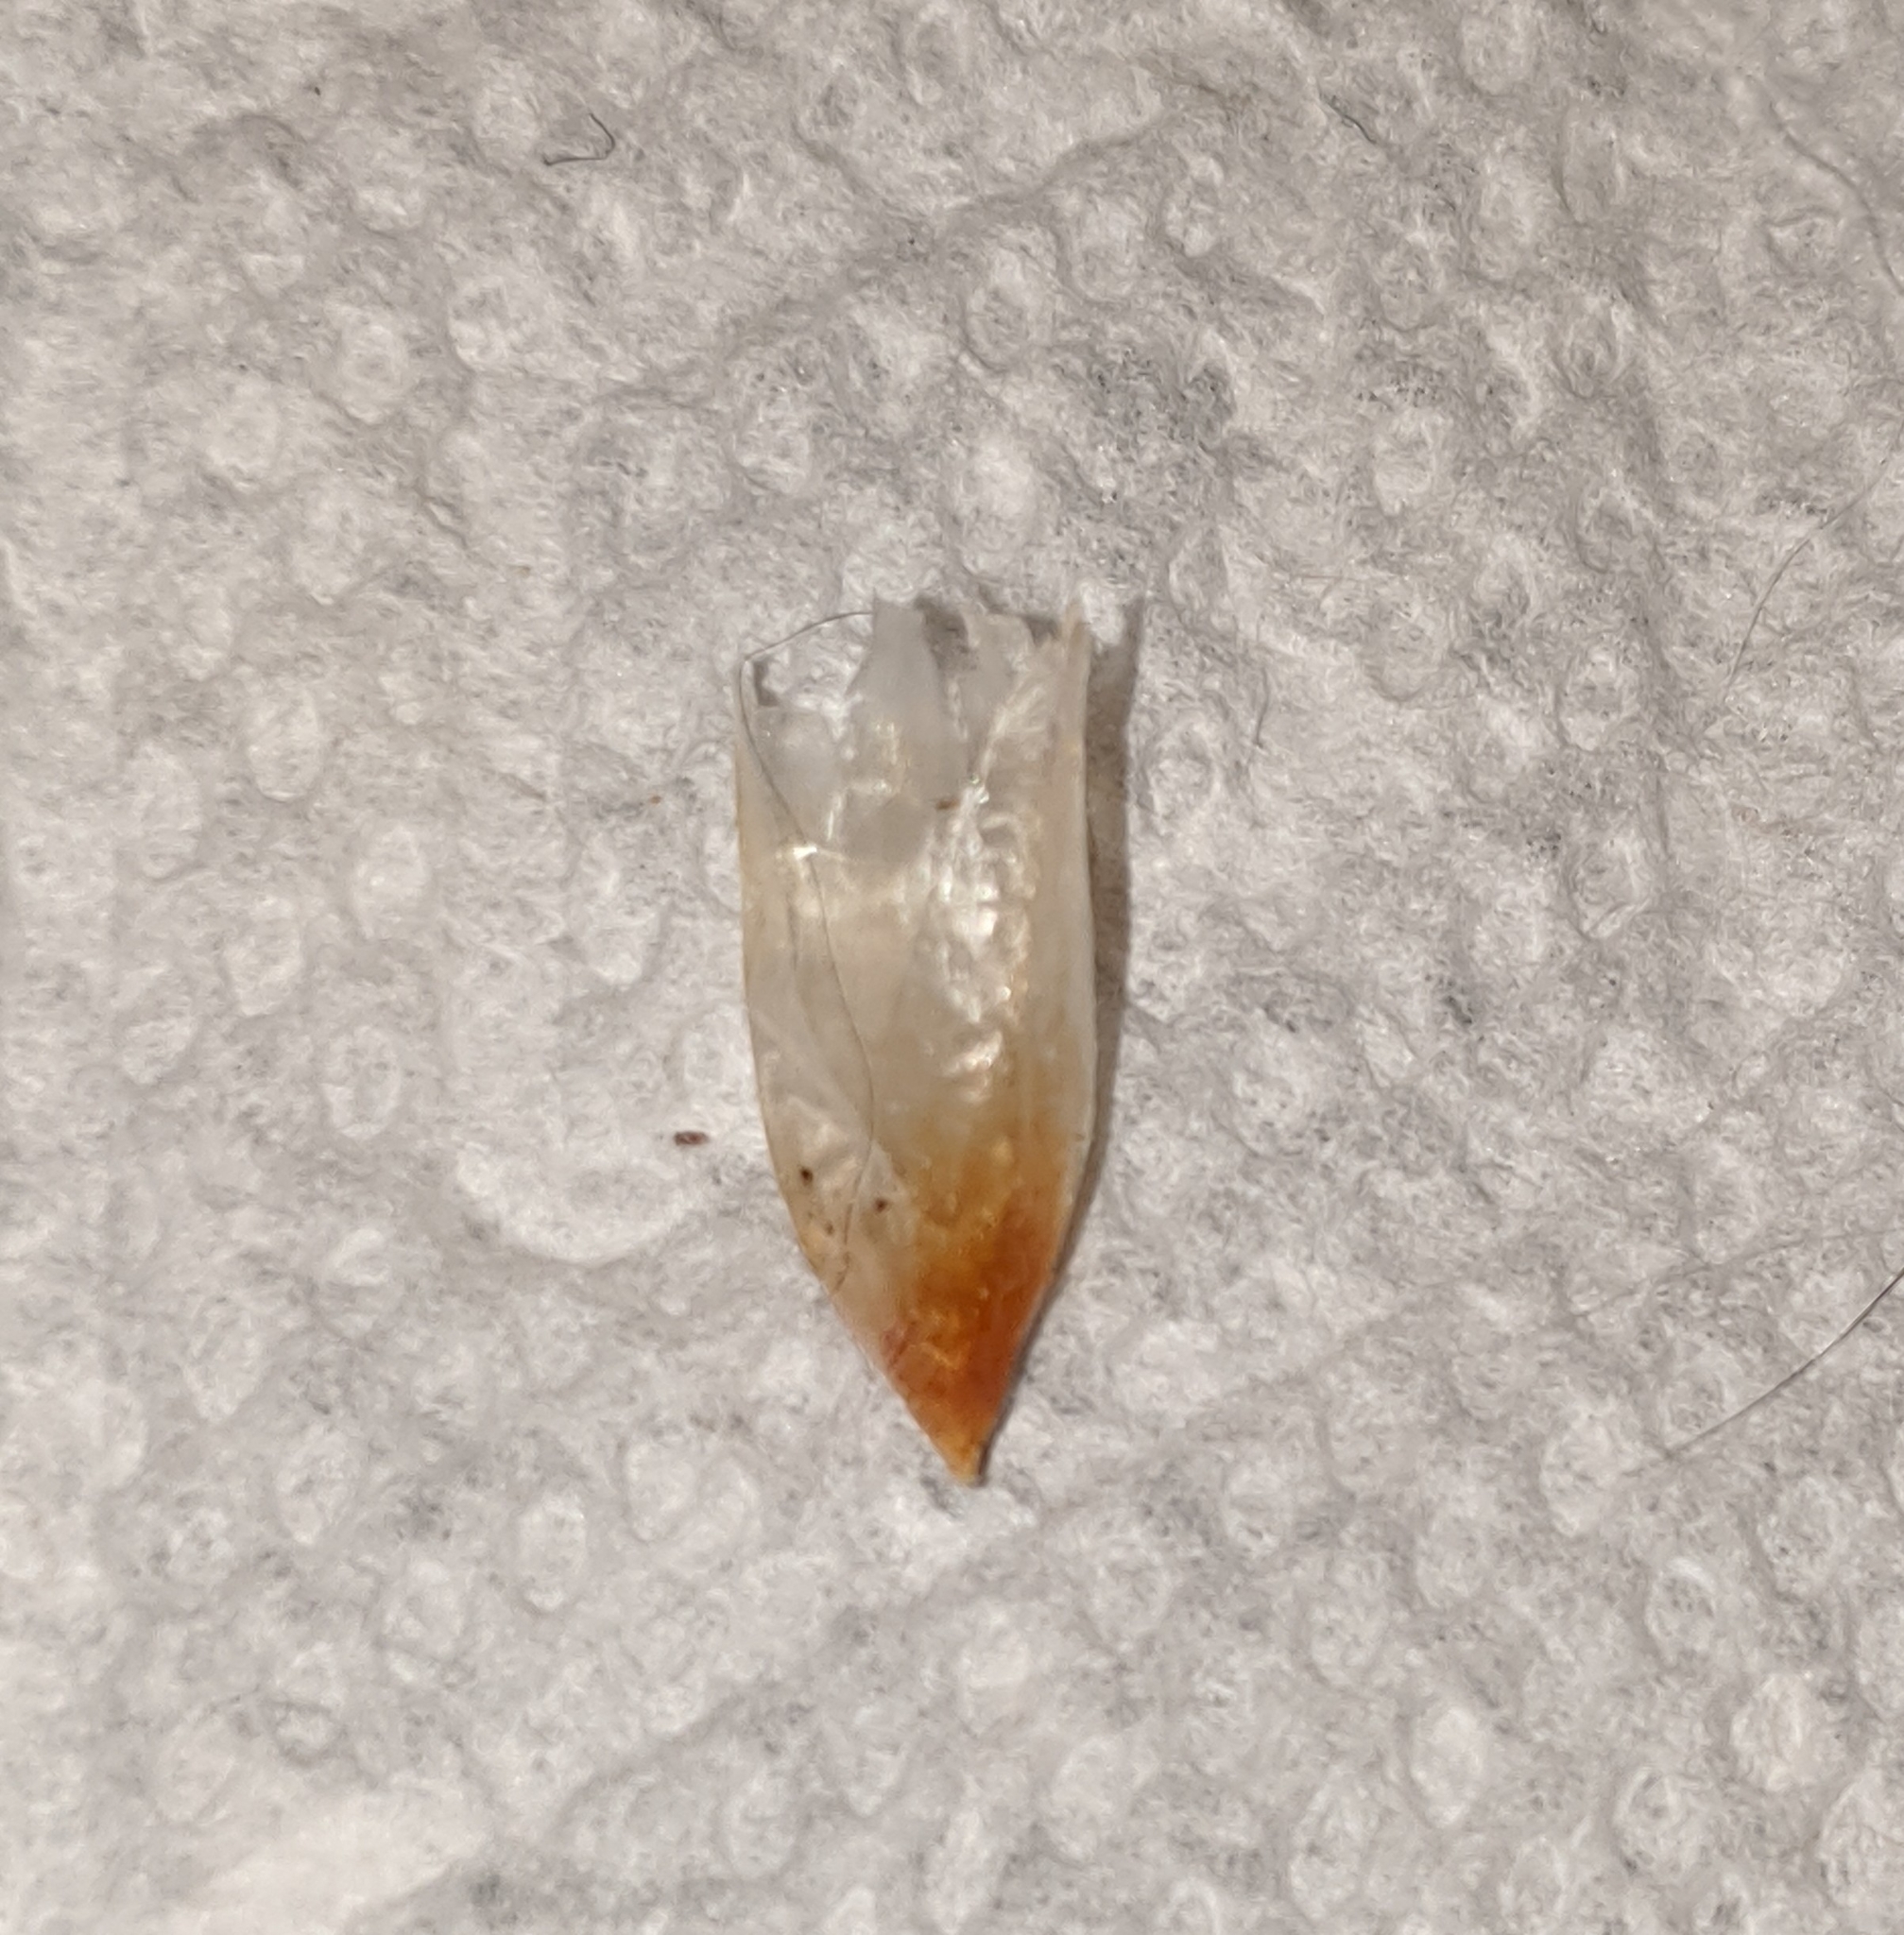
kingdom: Plantae
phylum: Tracheophyta
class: Pinopsida
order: Pinales
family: Pinaceae
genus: Pseudotsuga
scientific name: Pseudotsuga menziesii
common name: Douglas fir
